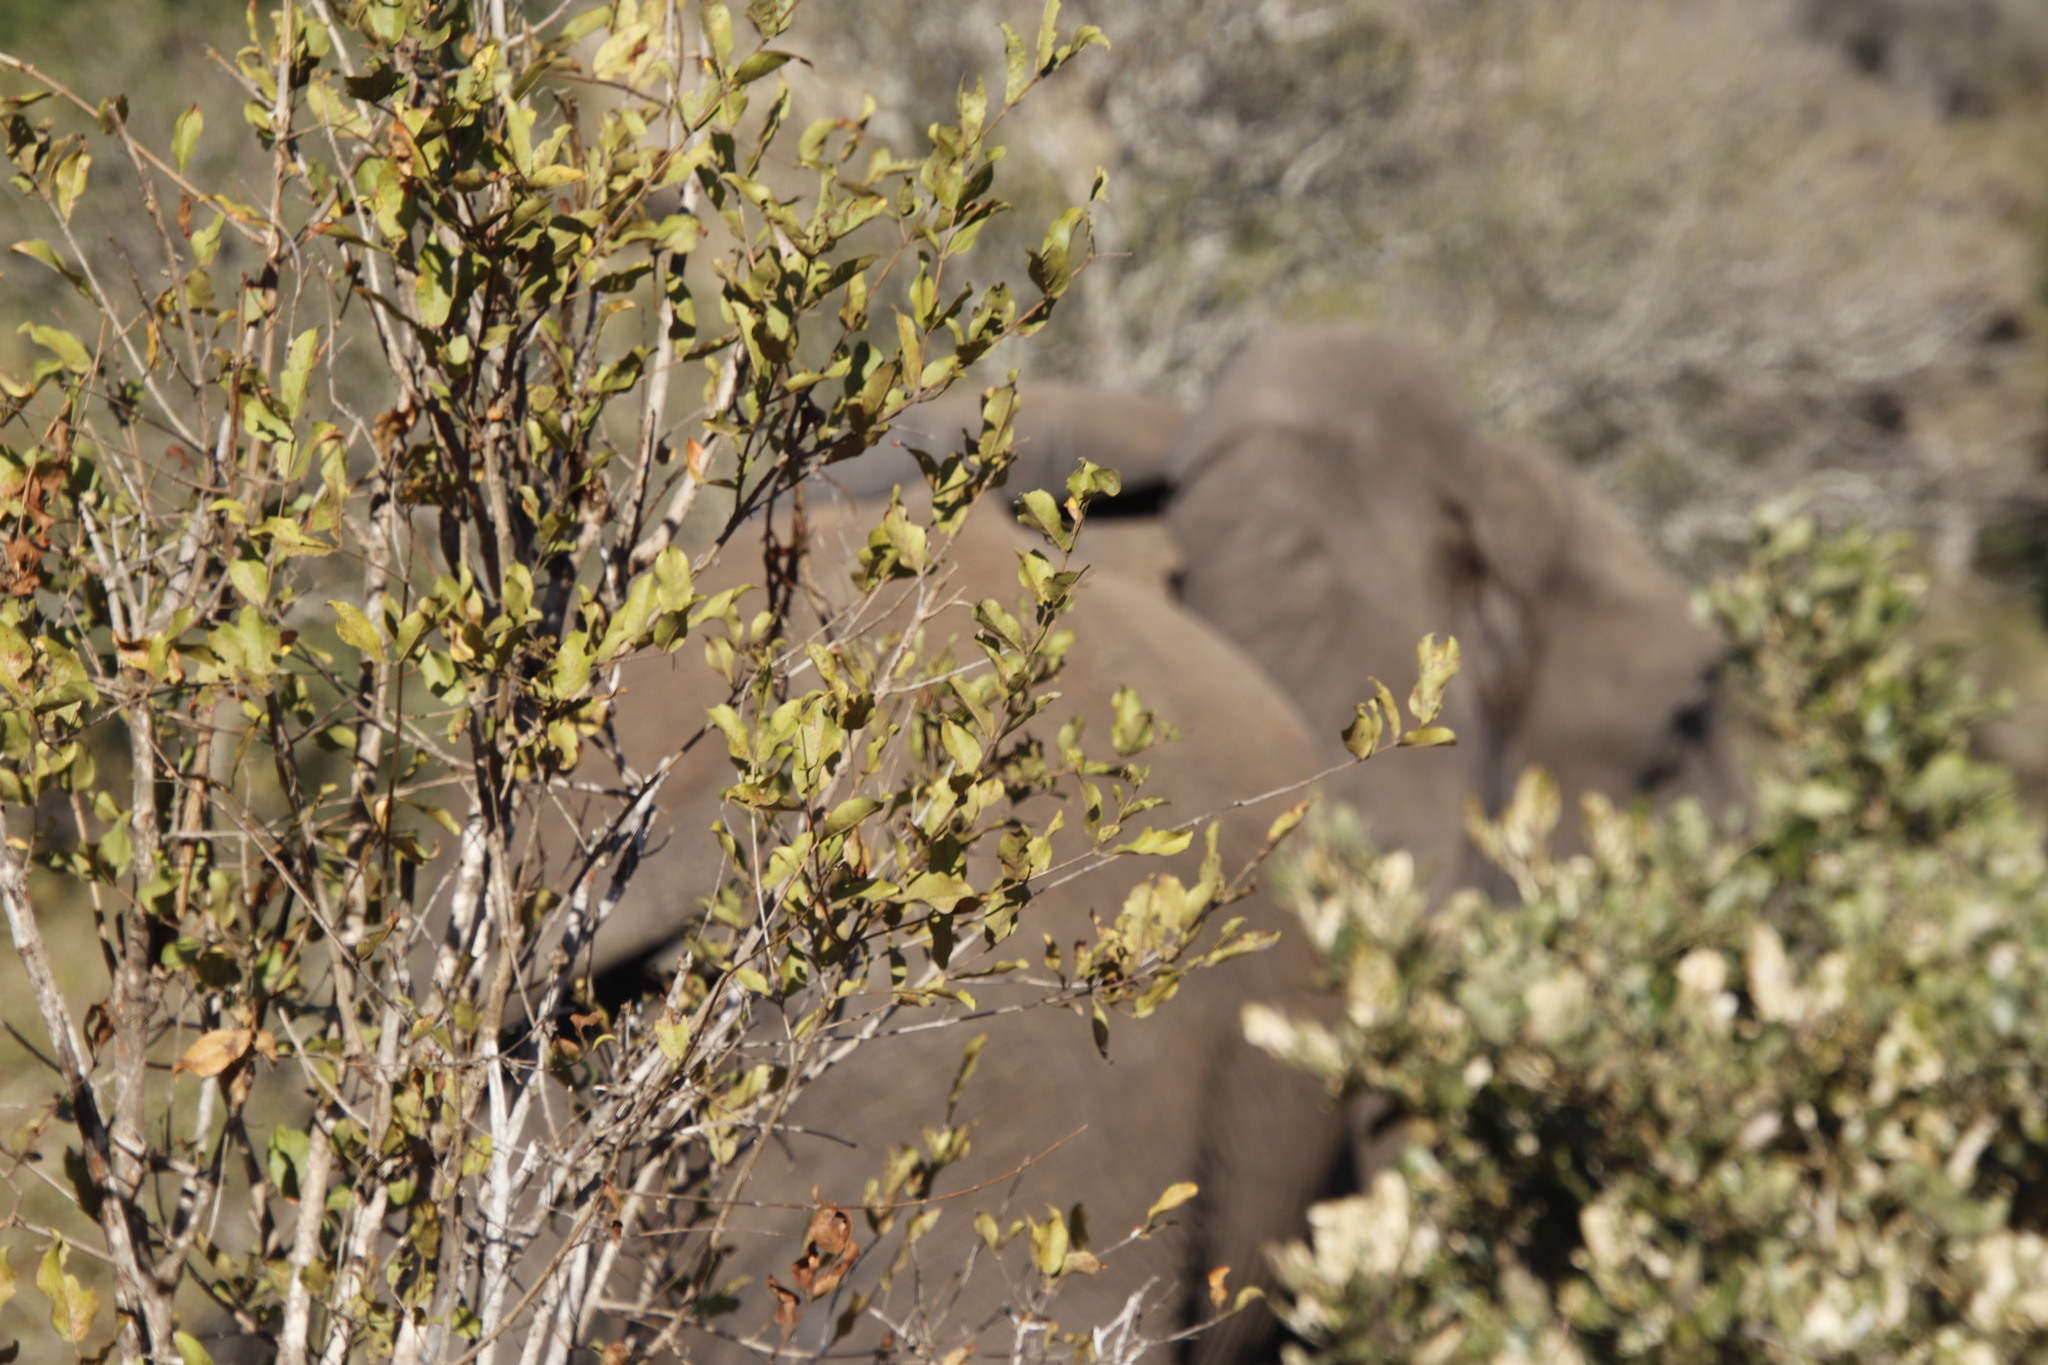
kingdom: Plantae
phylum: Tracheophyta
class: Magnoliopsida
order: Myrtales
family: Combretaceae
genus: Combretum
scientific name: Combretum apiculatum
